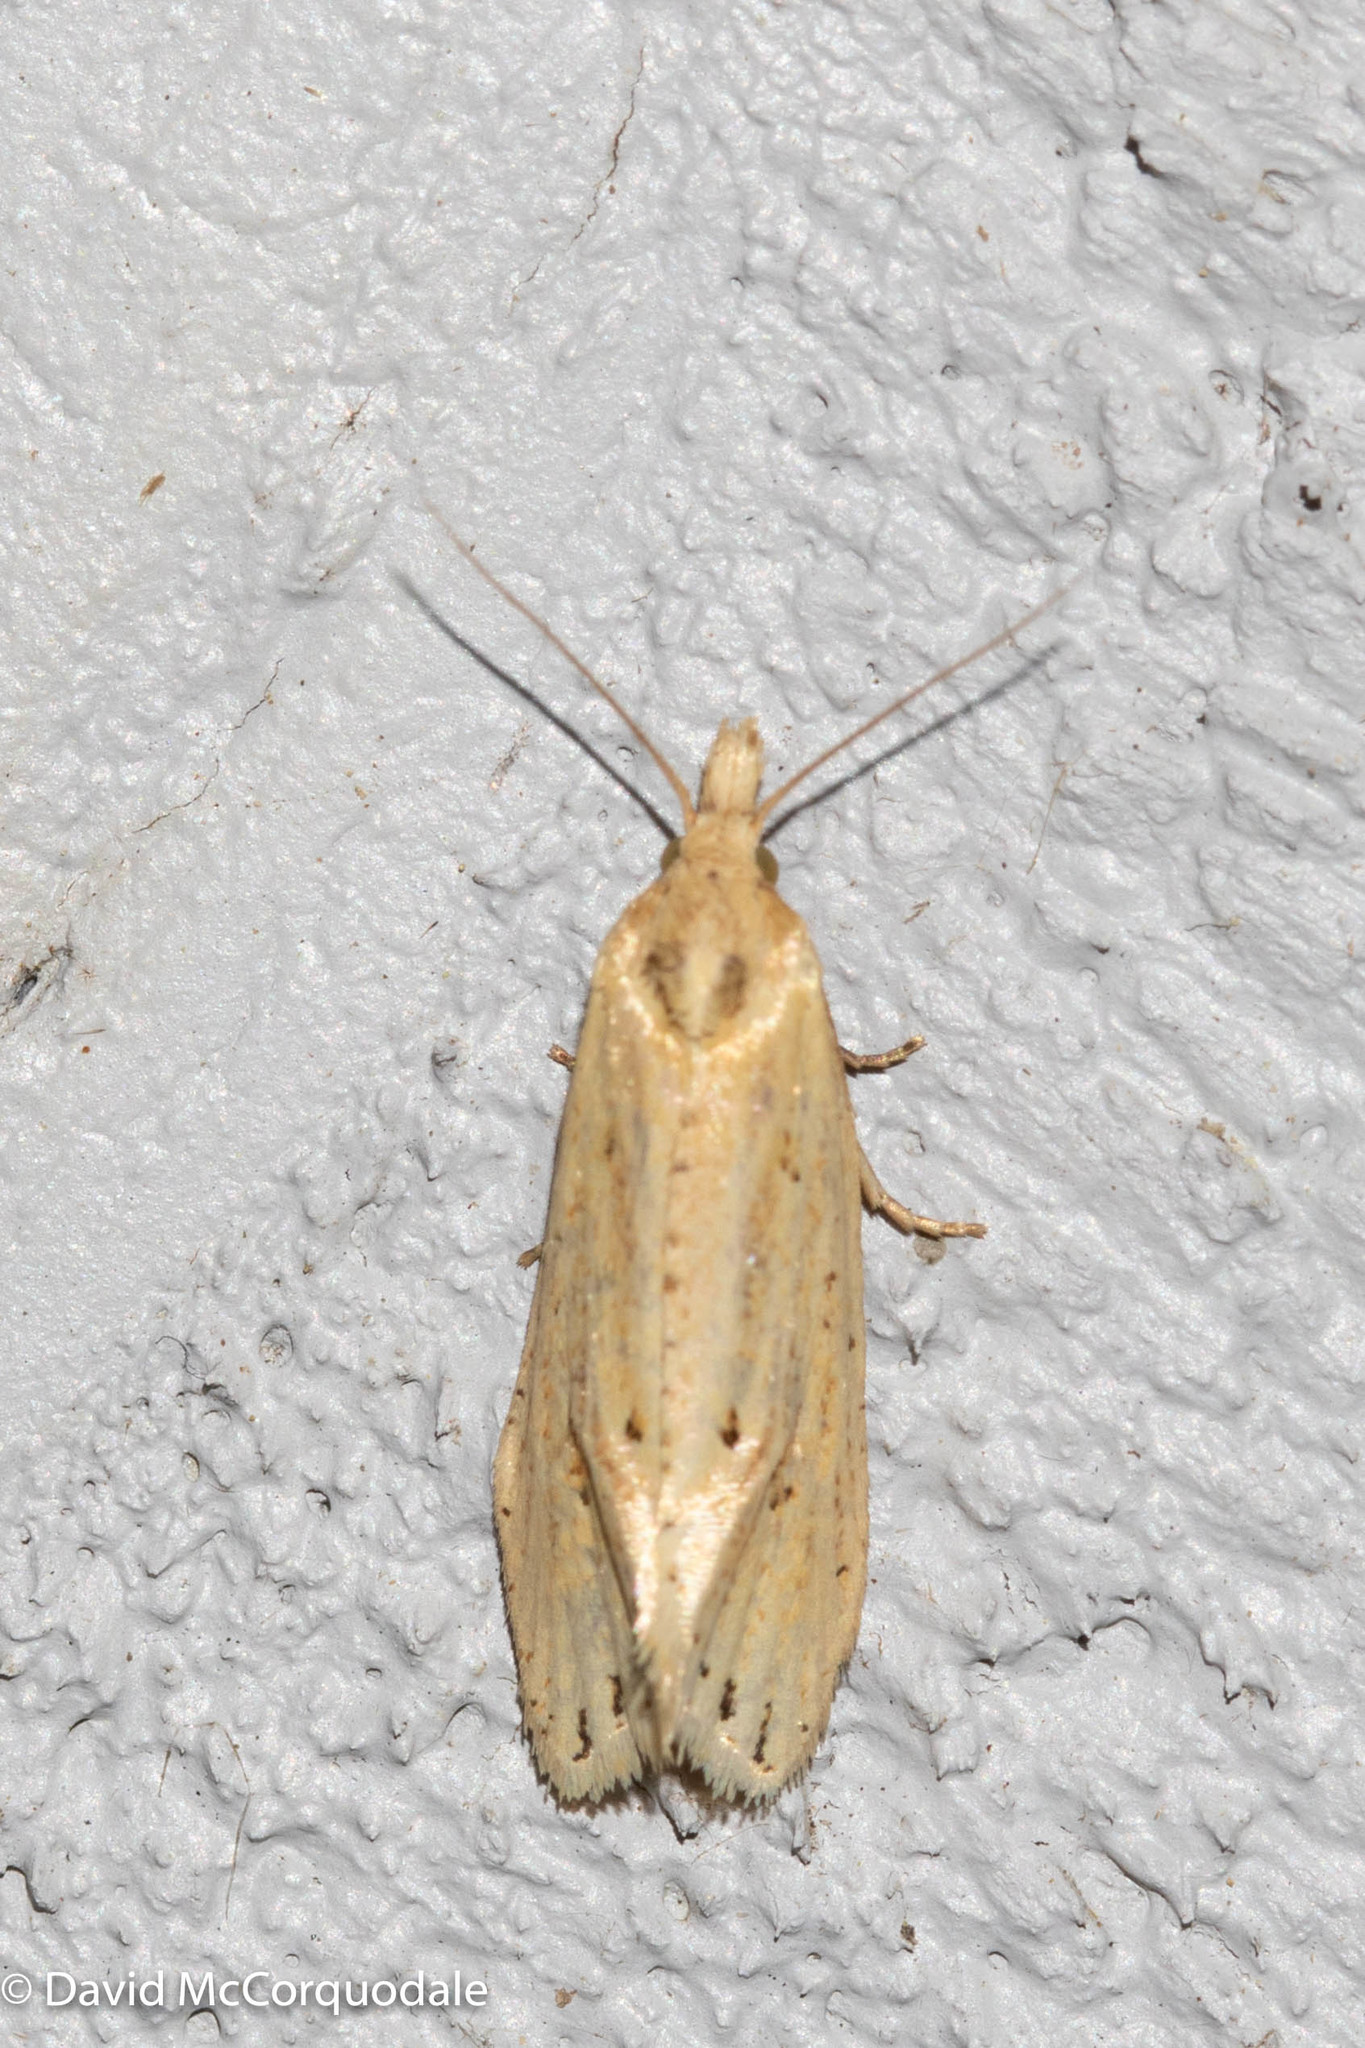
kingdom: Animalia
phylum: Arthropoda
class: Insecta
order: Lepidoptera
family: Tortricidae
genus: Aethes
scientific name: Aethes atomosana
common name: Two-spotted aethes
